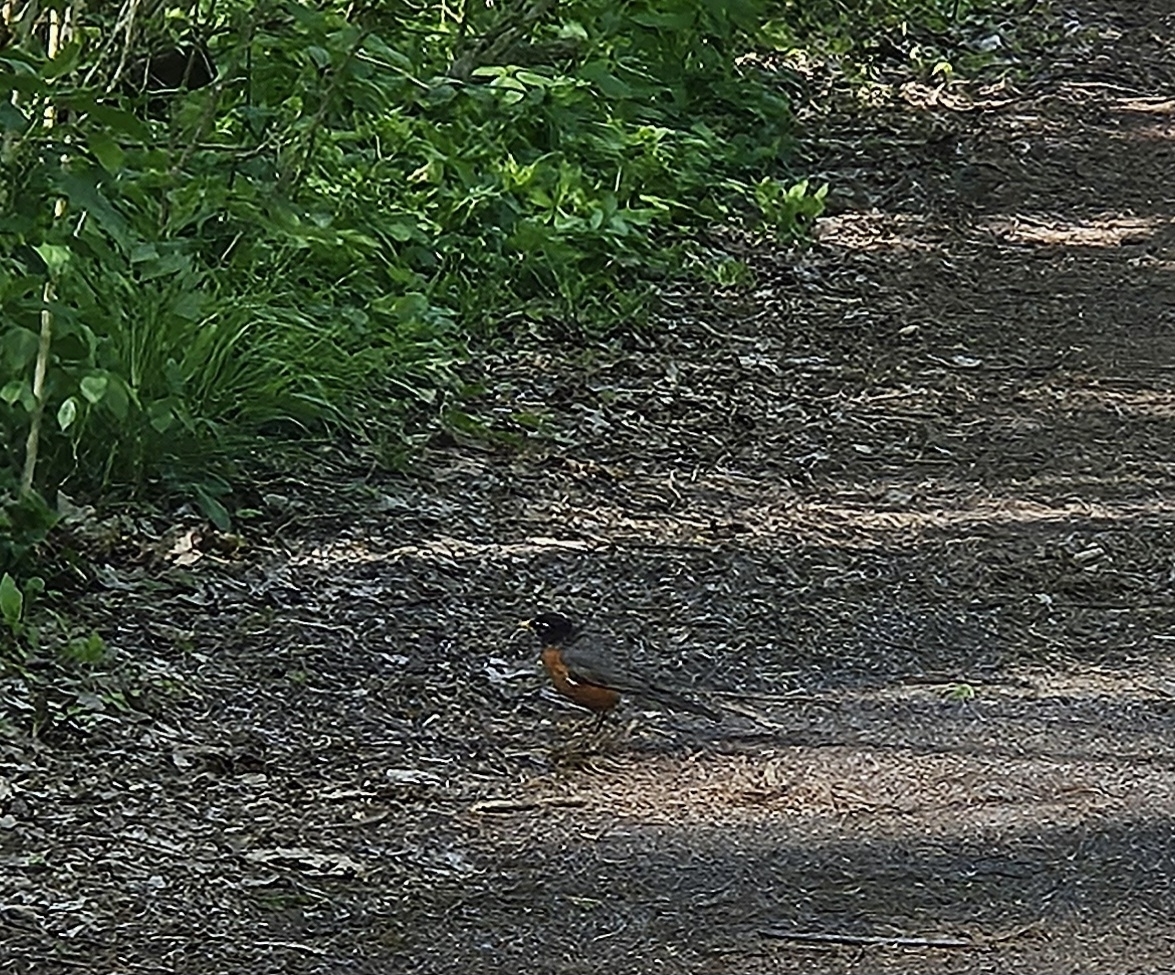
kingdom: Animalia
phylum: Chordata
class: Aves
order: Passeriformes
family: Turdidae
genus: Turdus
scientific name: Turdus migratorius
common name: American robin
